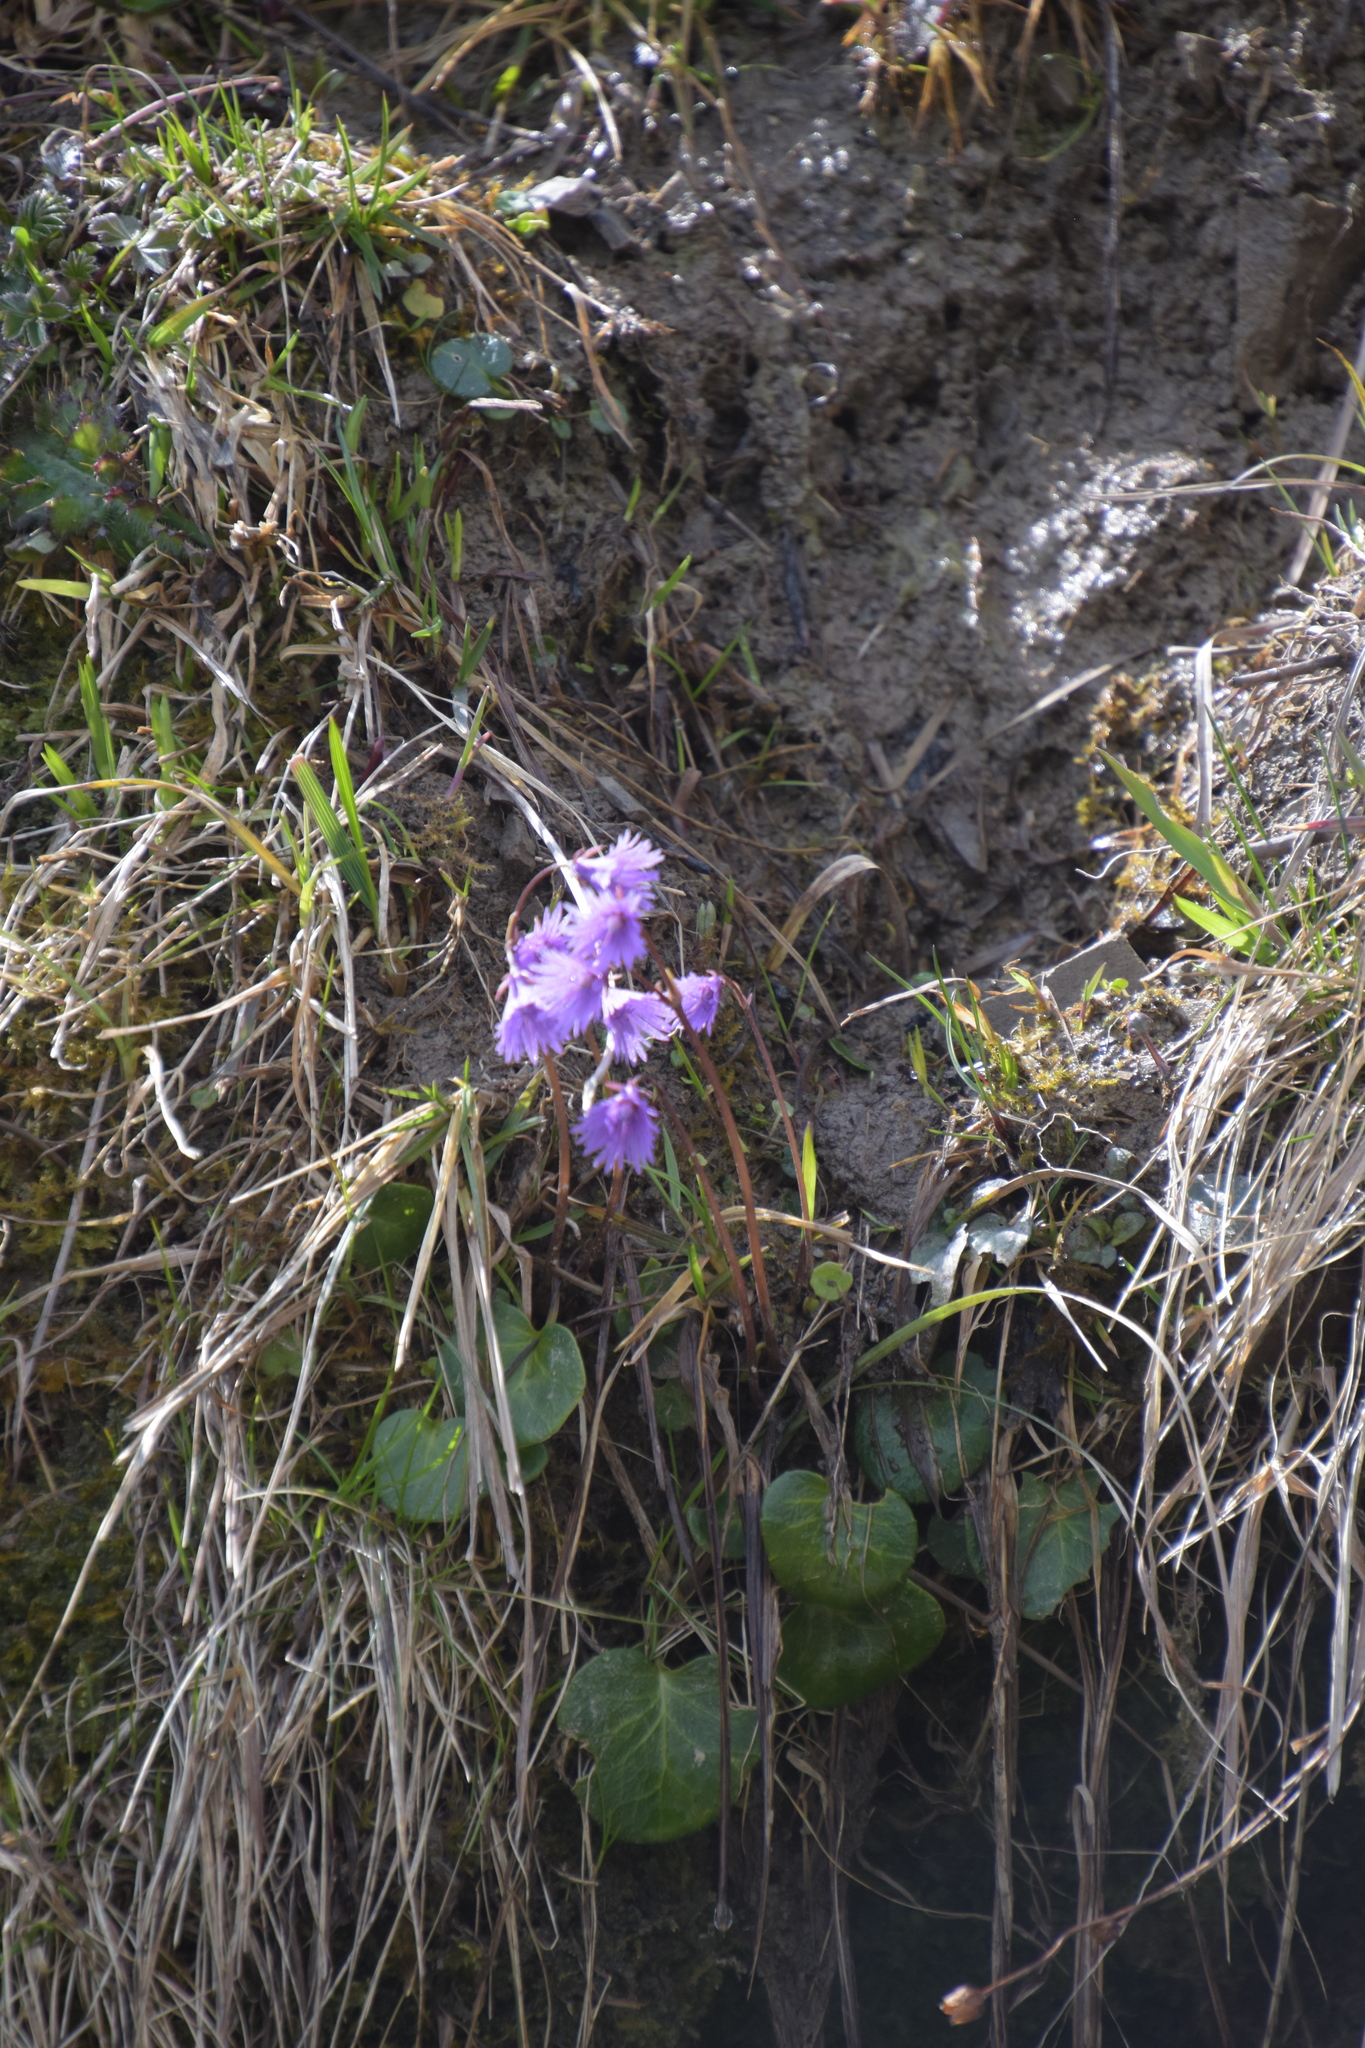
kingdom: Plantae
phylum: Tracheophyta
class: Magnoliopsida
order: Ericales
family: Primulaceae
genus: Soldanella
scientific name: Soldanella alpina
